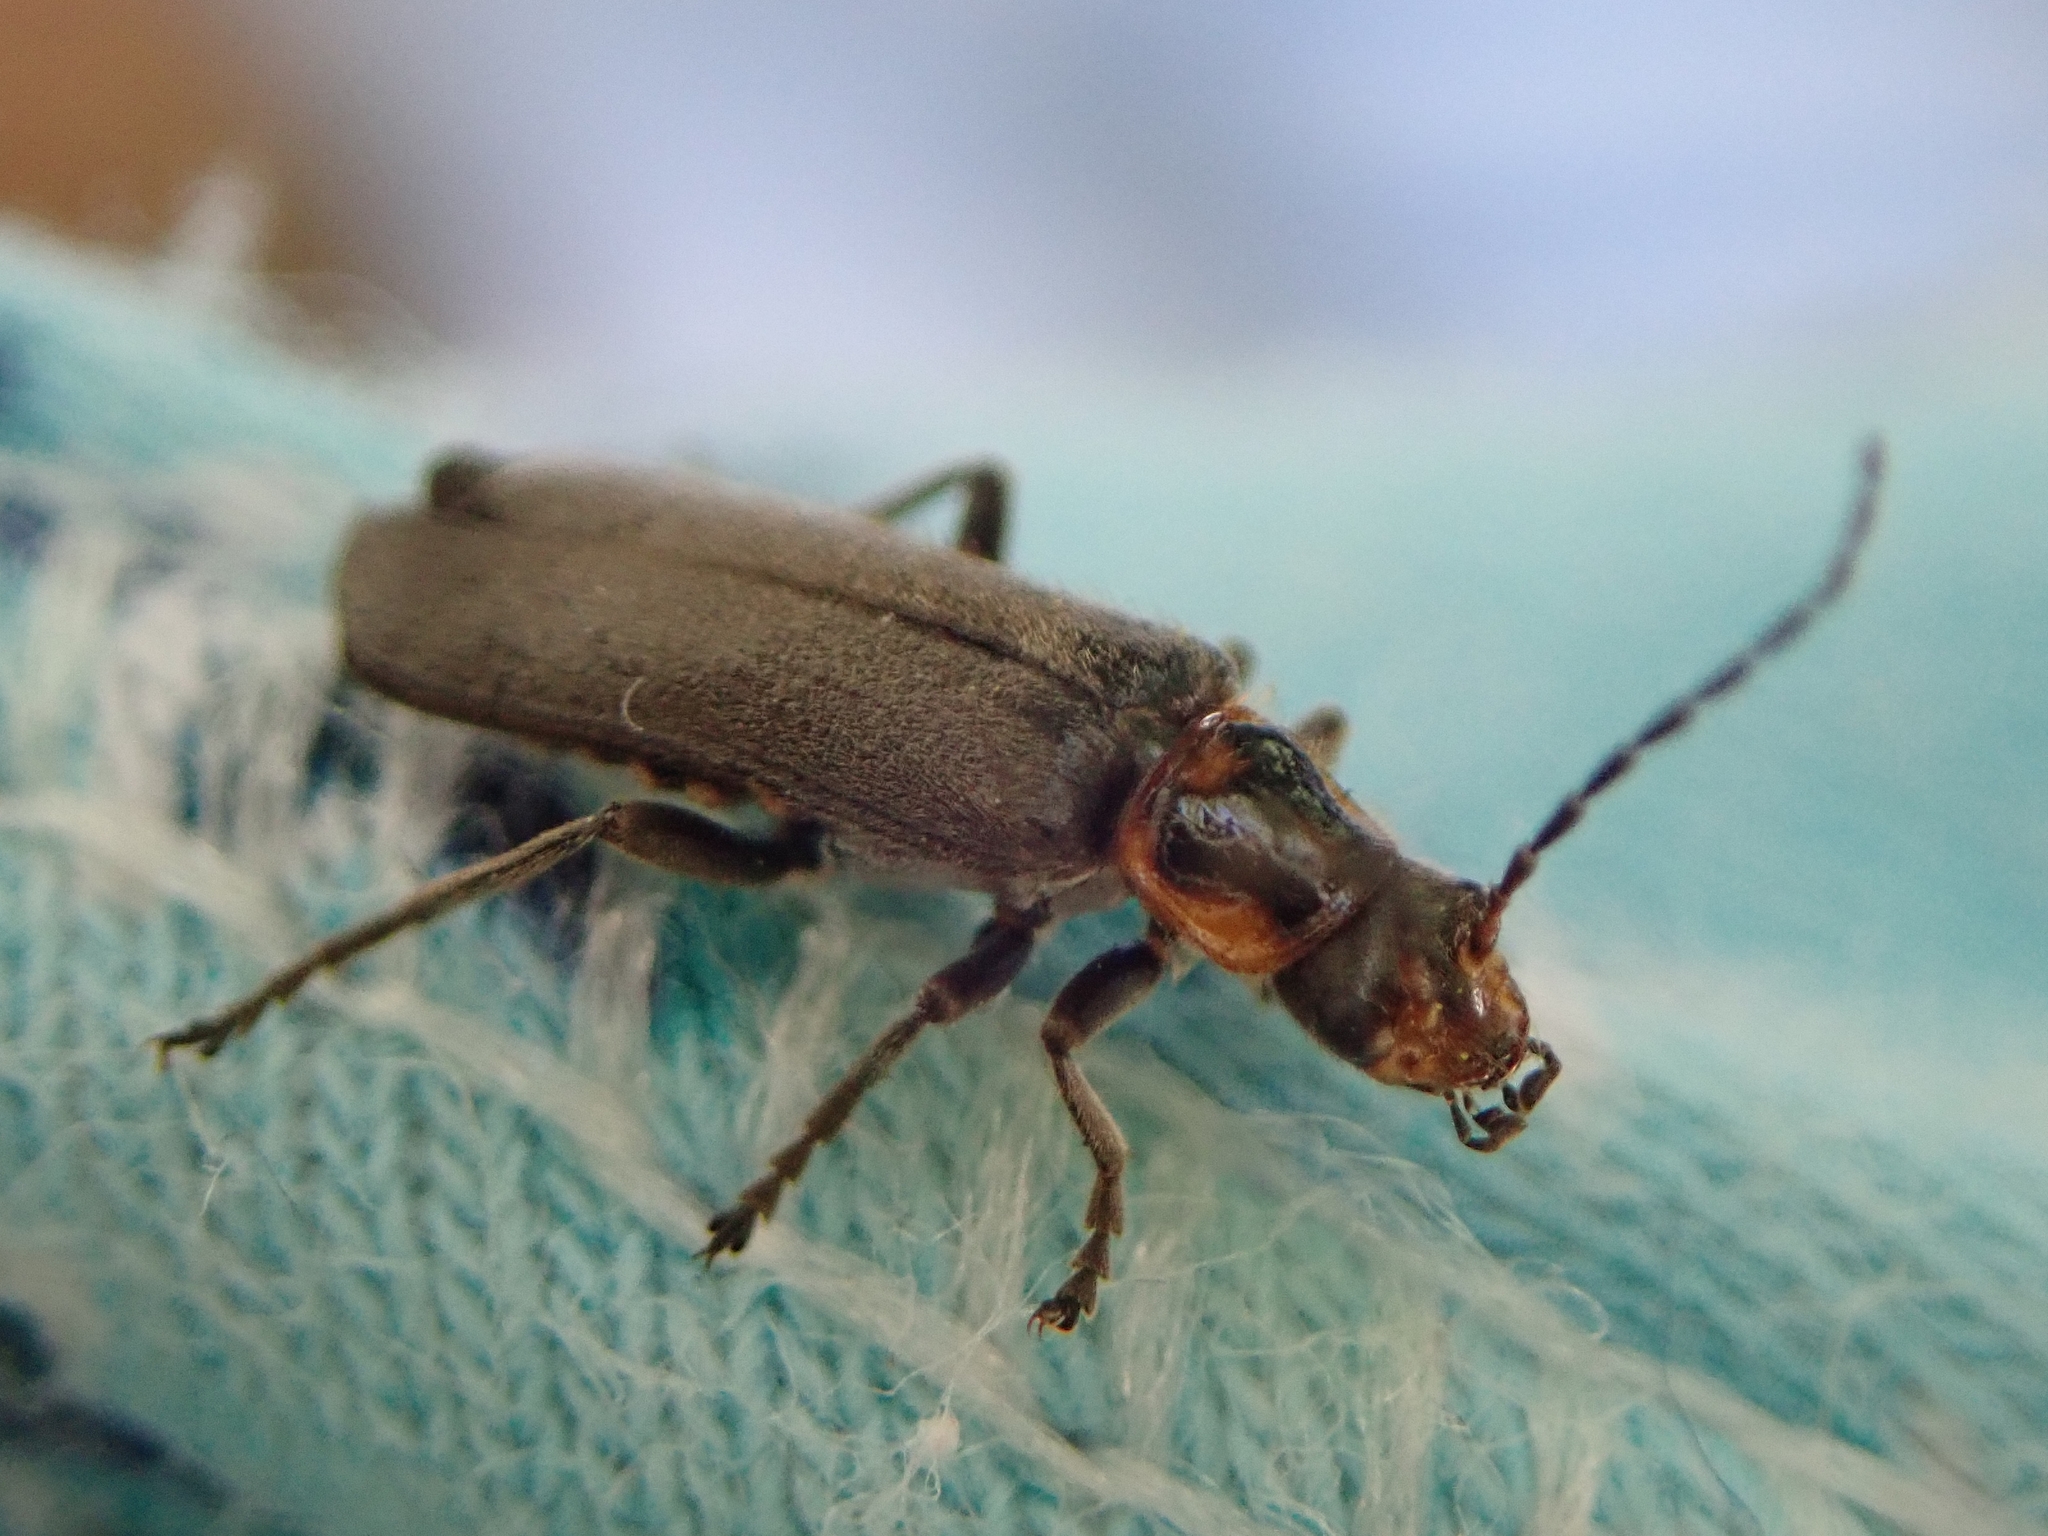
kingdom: Animalia
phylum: Arthropoda
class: Insecta
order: Coleoptera
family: Cantharidae
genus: Cyrtomoptera
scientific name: Cyrtomoptera divisa
